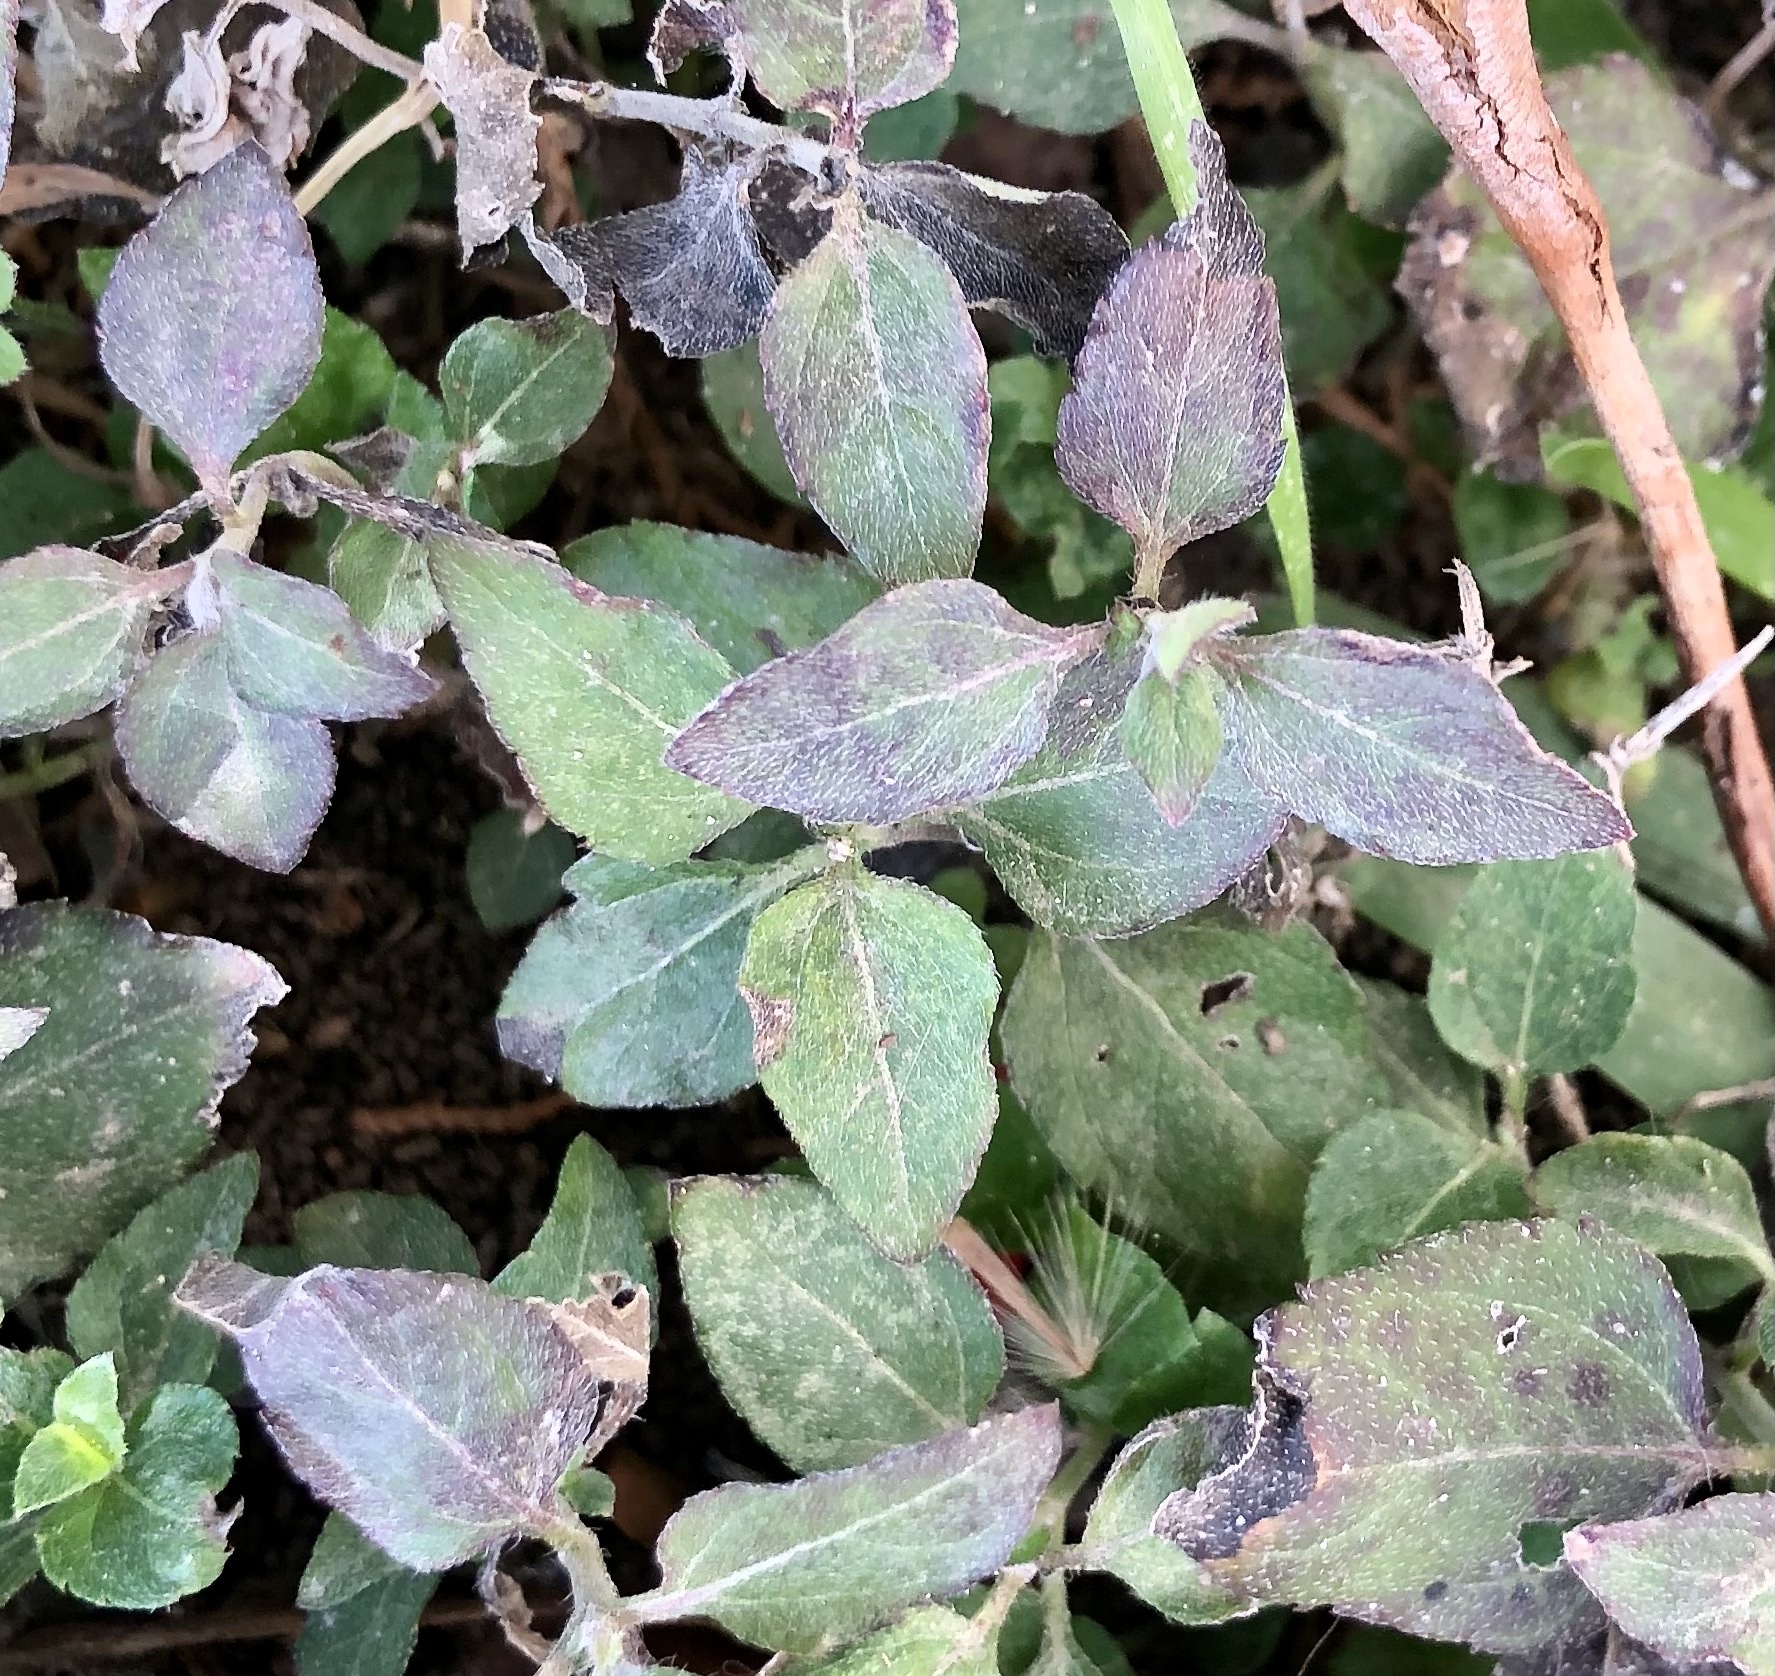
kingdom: Plantae
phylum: Tracheophyta
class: Magnoliopsida
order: Asterales
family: Asteraceae
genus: Calyptocarpus
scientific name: Calyptocarpus vialis
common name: Straggler daisy
